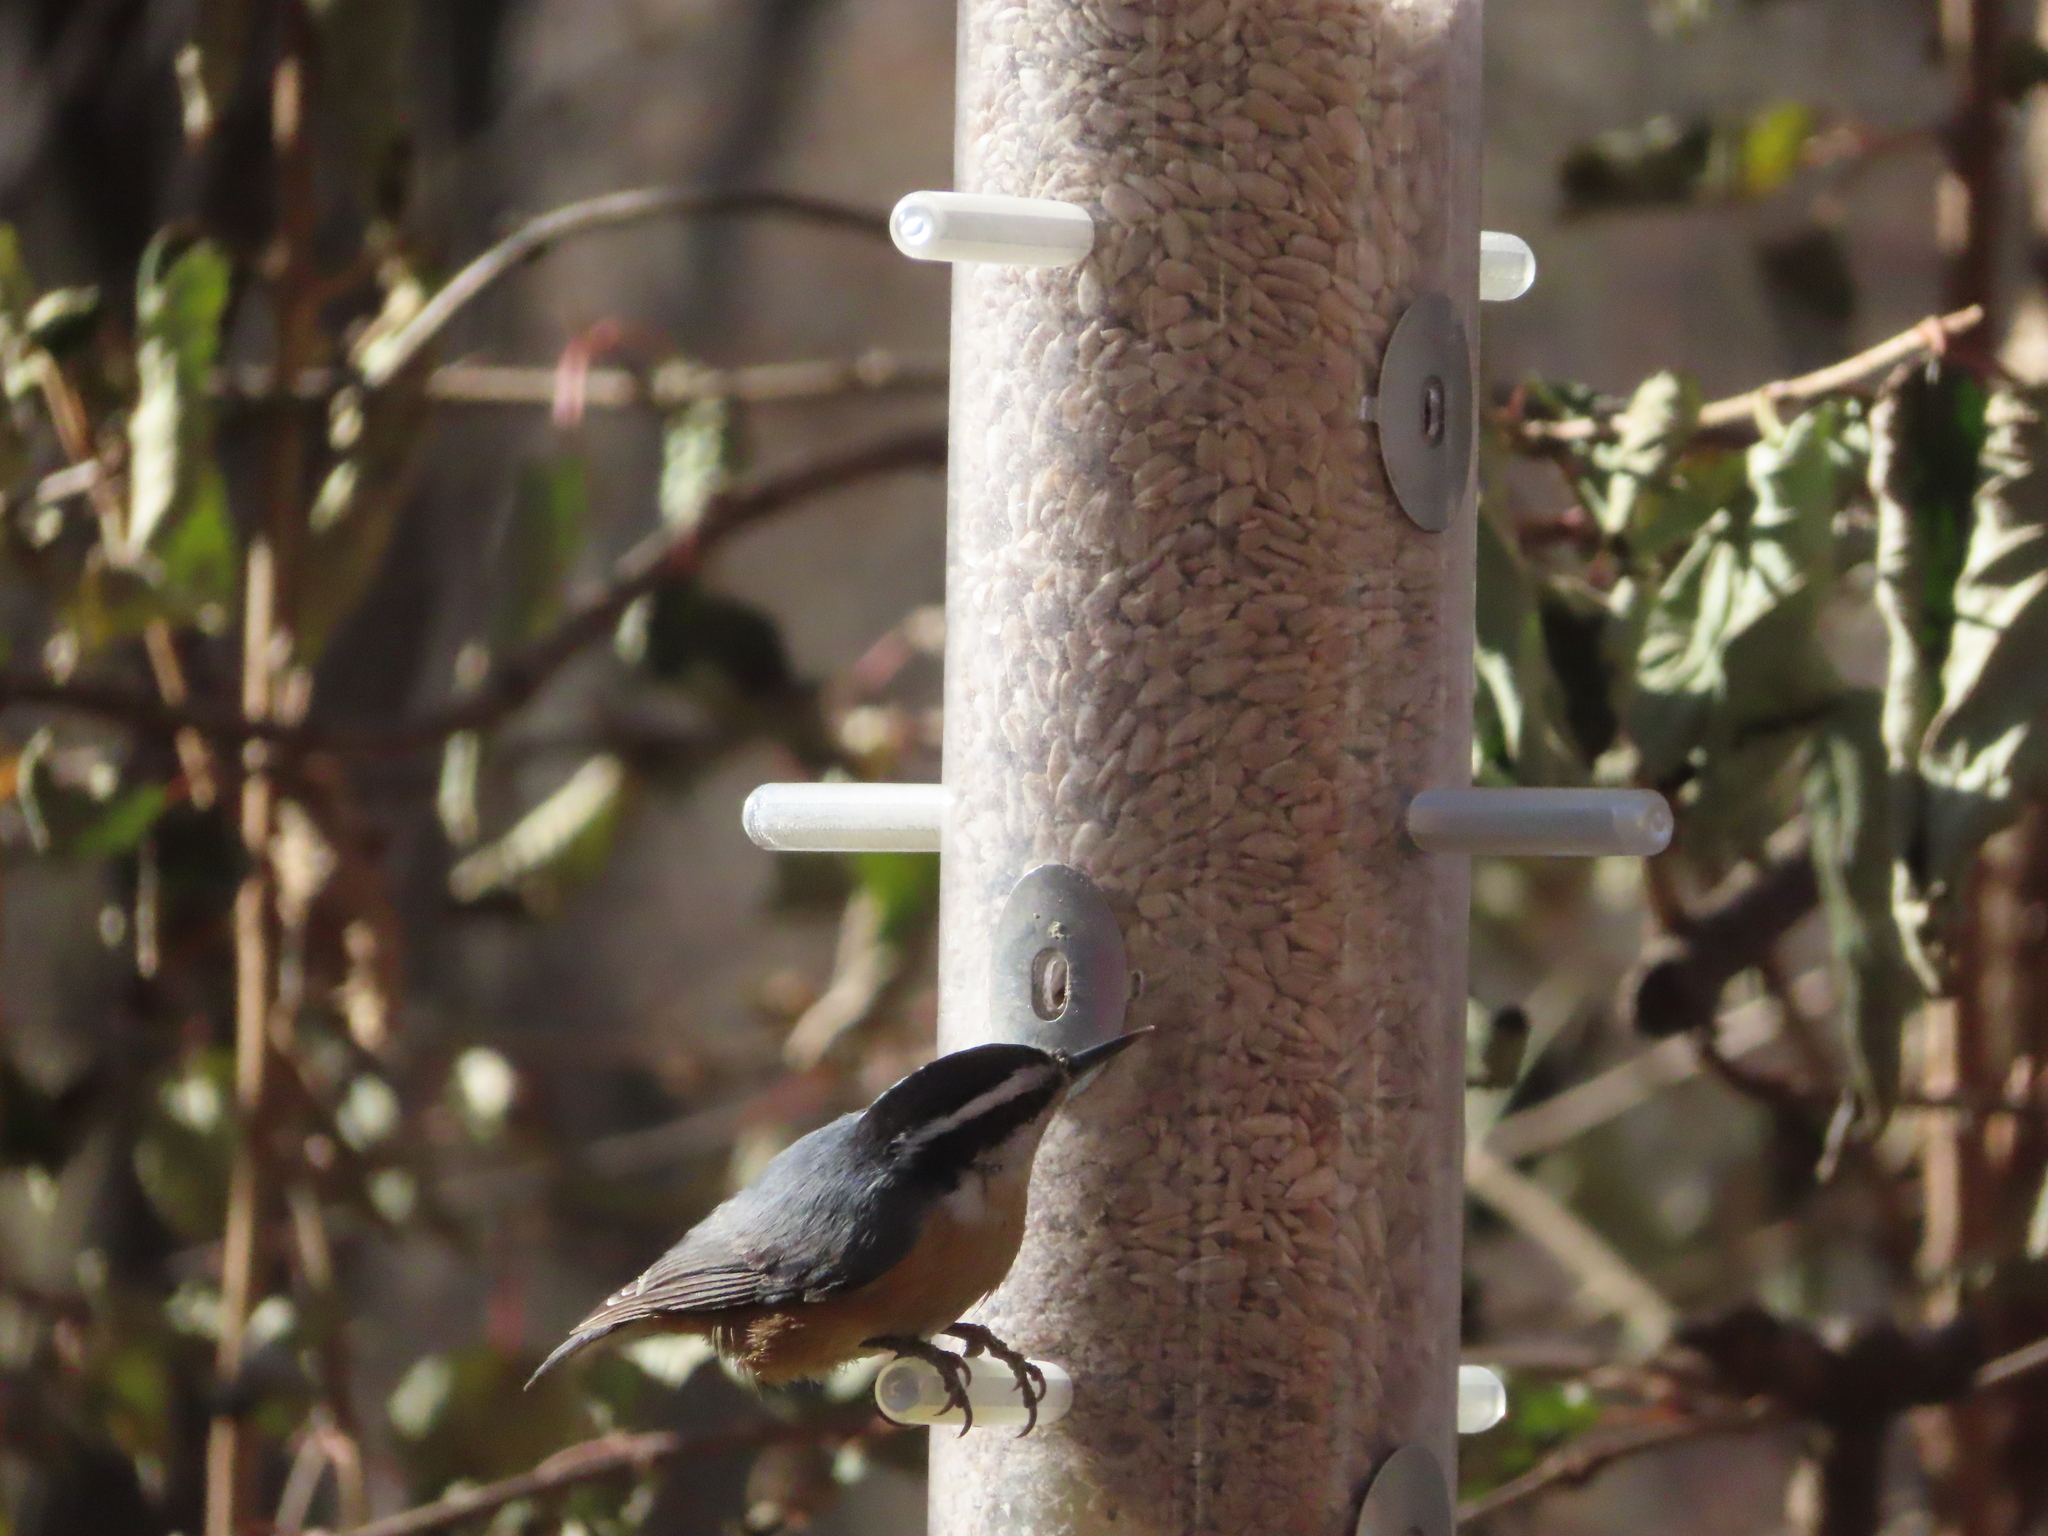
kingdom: Animalia
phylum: Chordata
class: Aves
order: Passeriformes
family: Sittidae
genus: Sitta
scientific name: Sitta canadensis
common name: Red-breasted nuthatch
